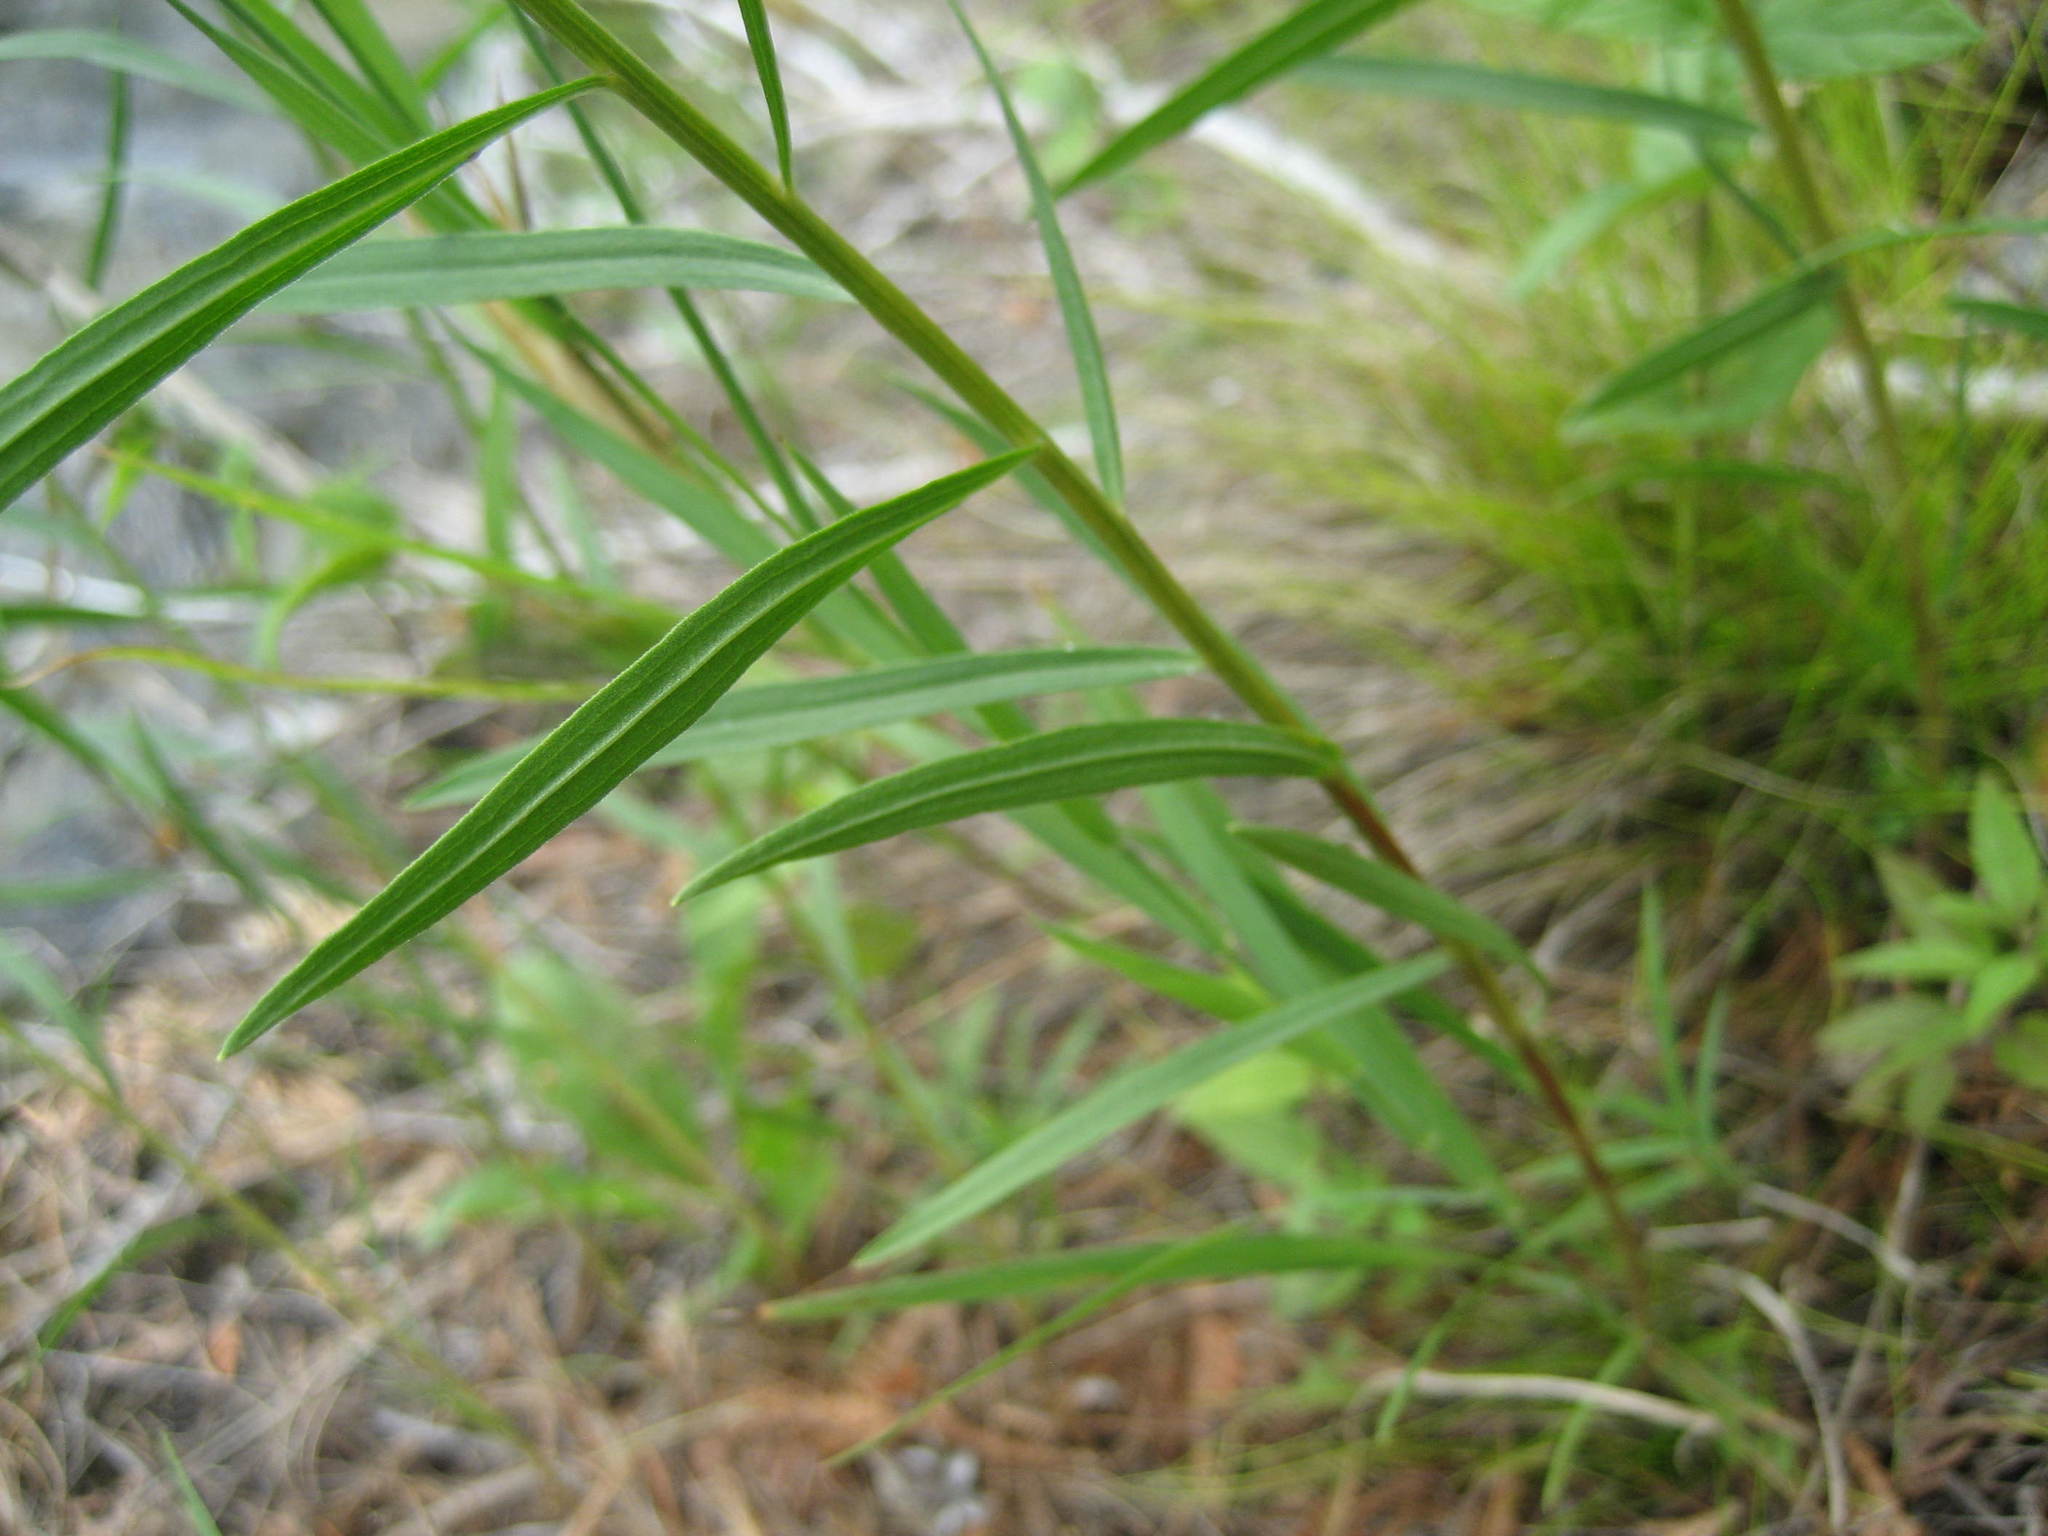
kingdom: Plantae
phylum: Tracheophyta
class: Magnoliopsida
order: Asterales
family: Asteraceae
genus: Euthamia
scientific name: Euthamia graminifolia
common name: Common goldentop
